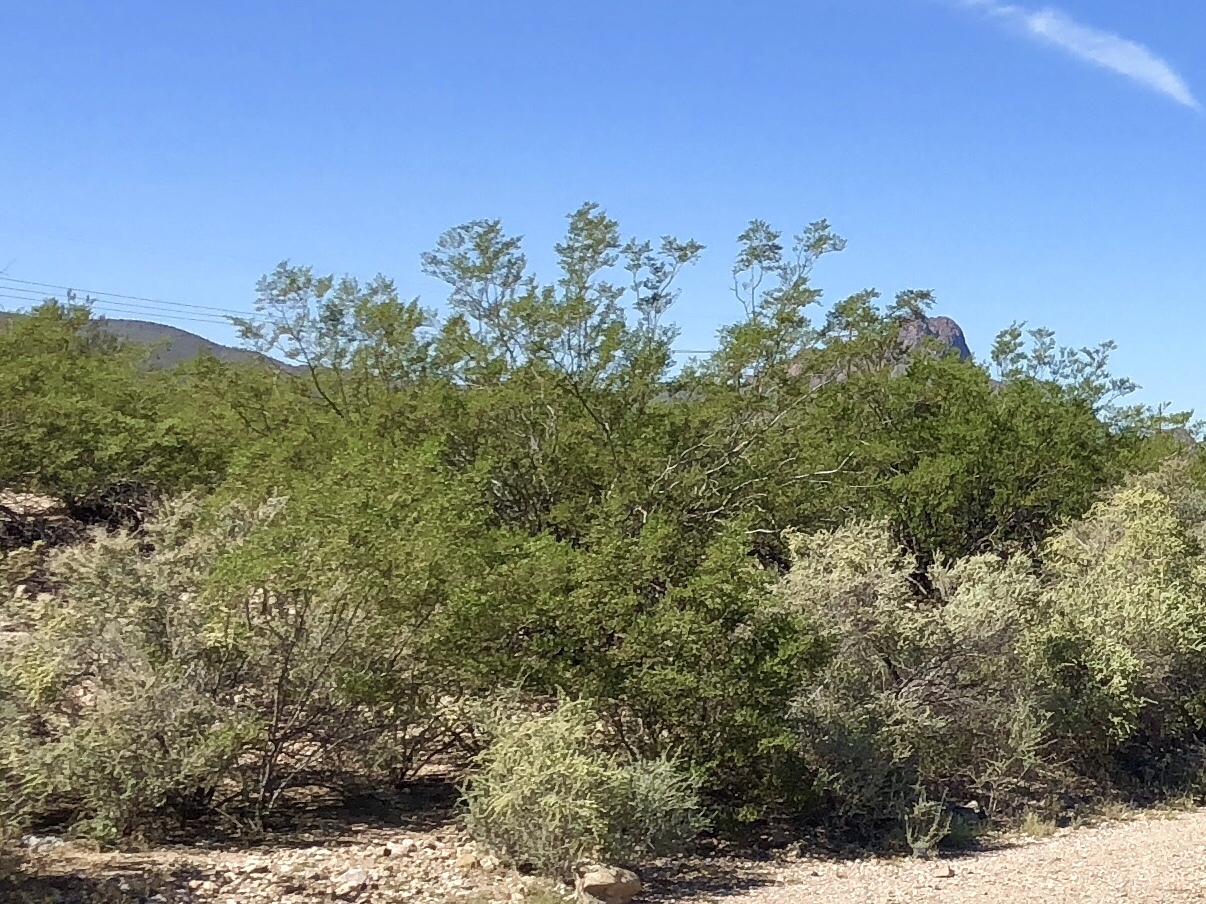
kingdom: Plantae
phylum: Tracheophyta
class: Magnoliopsida
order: Zygophyllales
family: Zygophyllaceae
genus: Larrea
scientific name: Larrea tridentata
